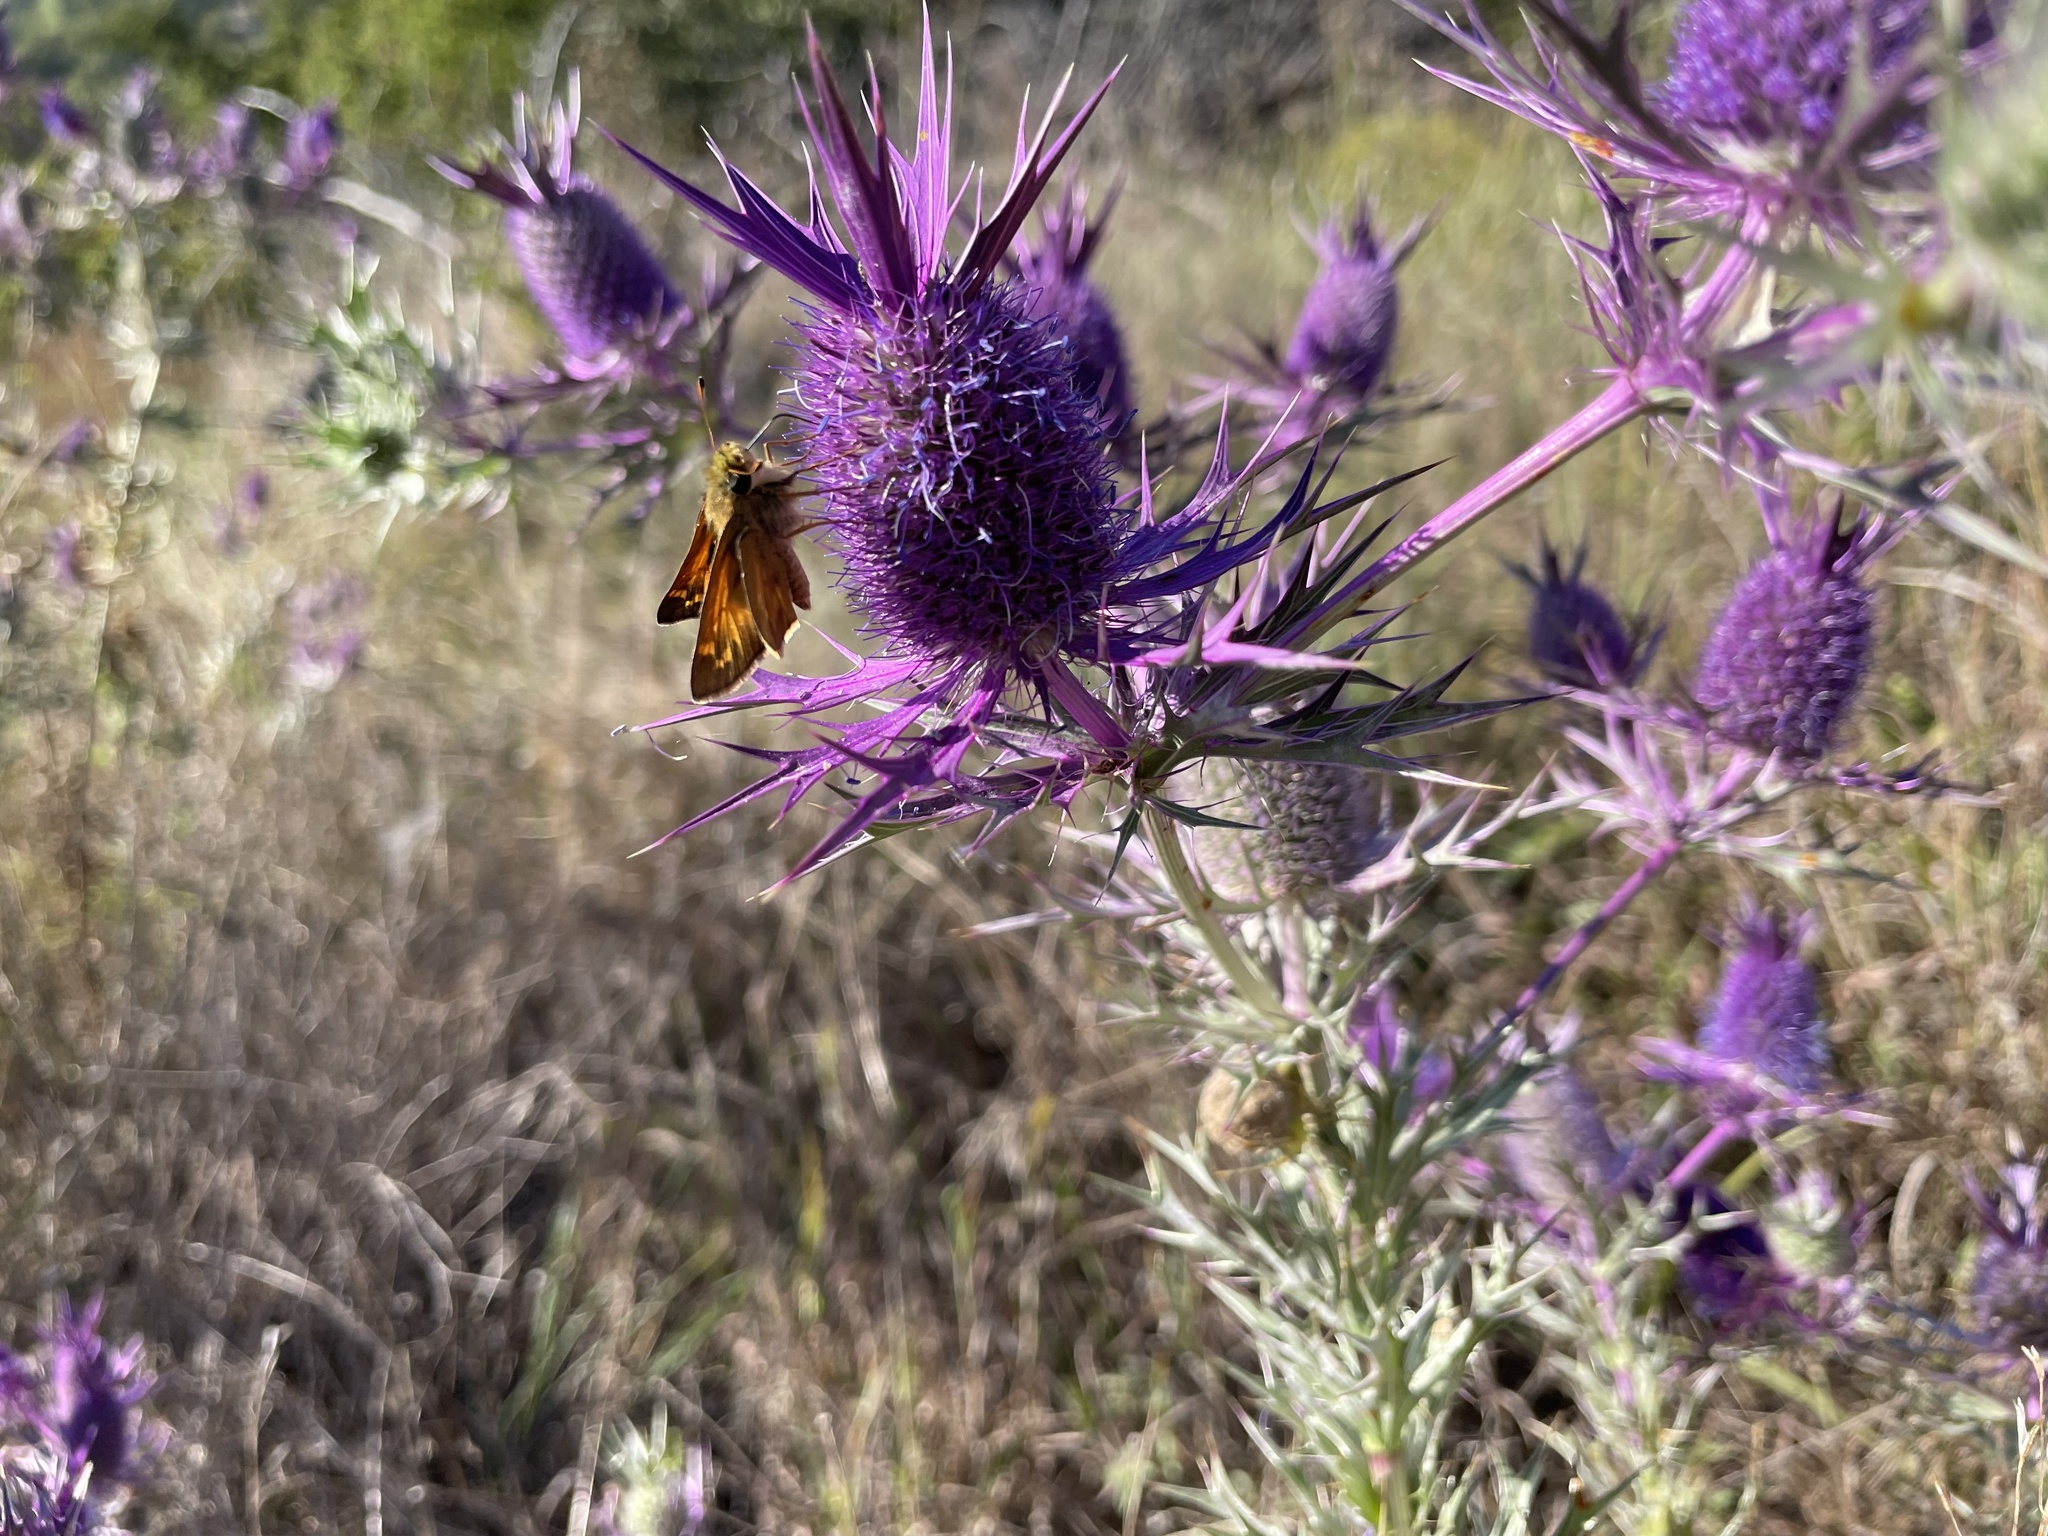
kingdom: Animalia
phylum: Arthropoda
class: Insecta
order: Lepidoptera
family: Hesperiidae
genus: Atalopedes
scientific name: Atalopedes
